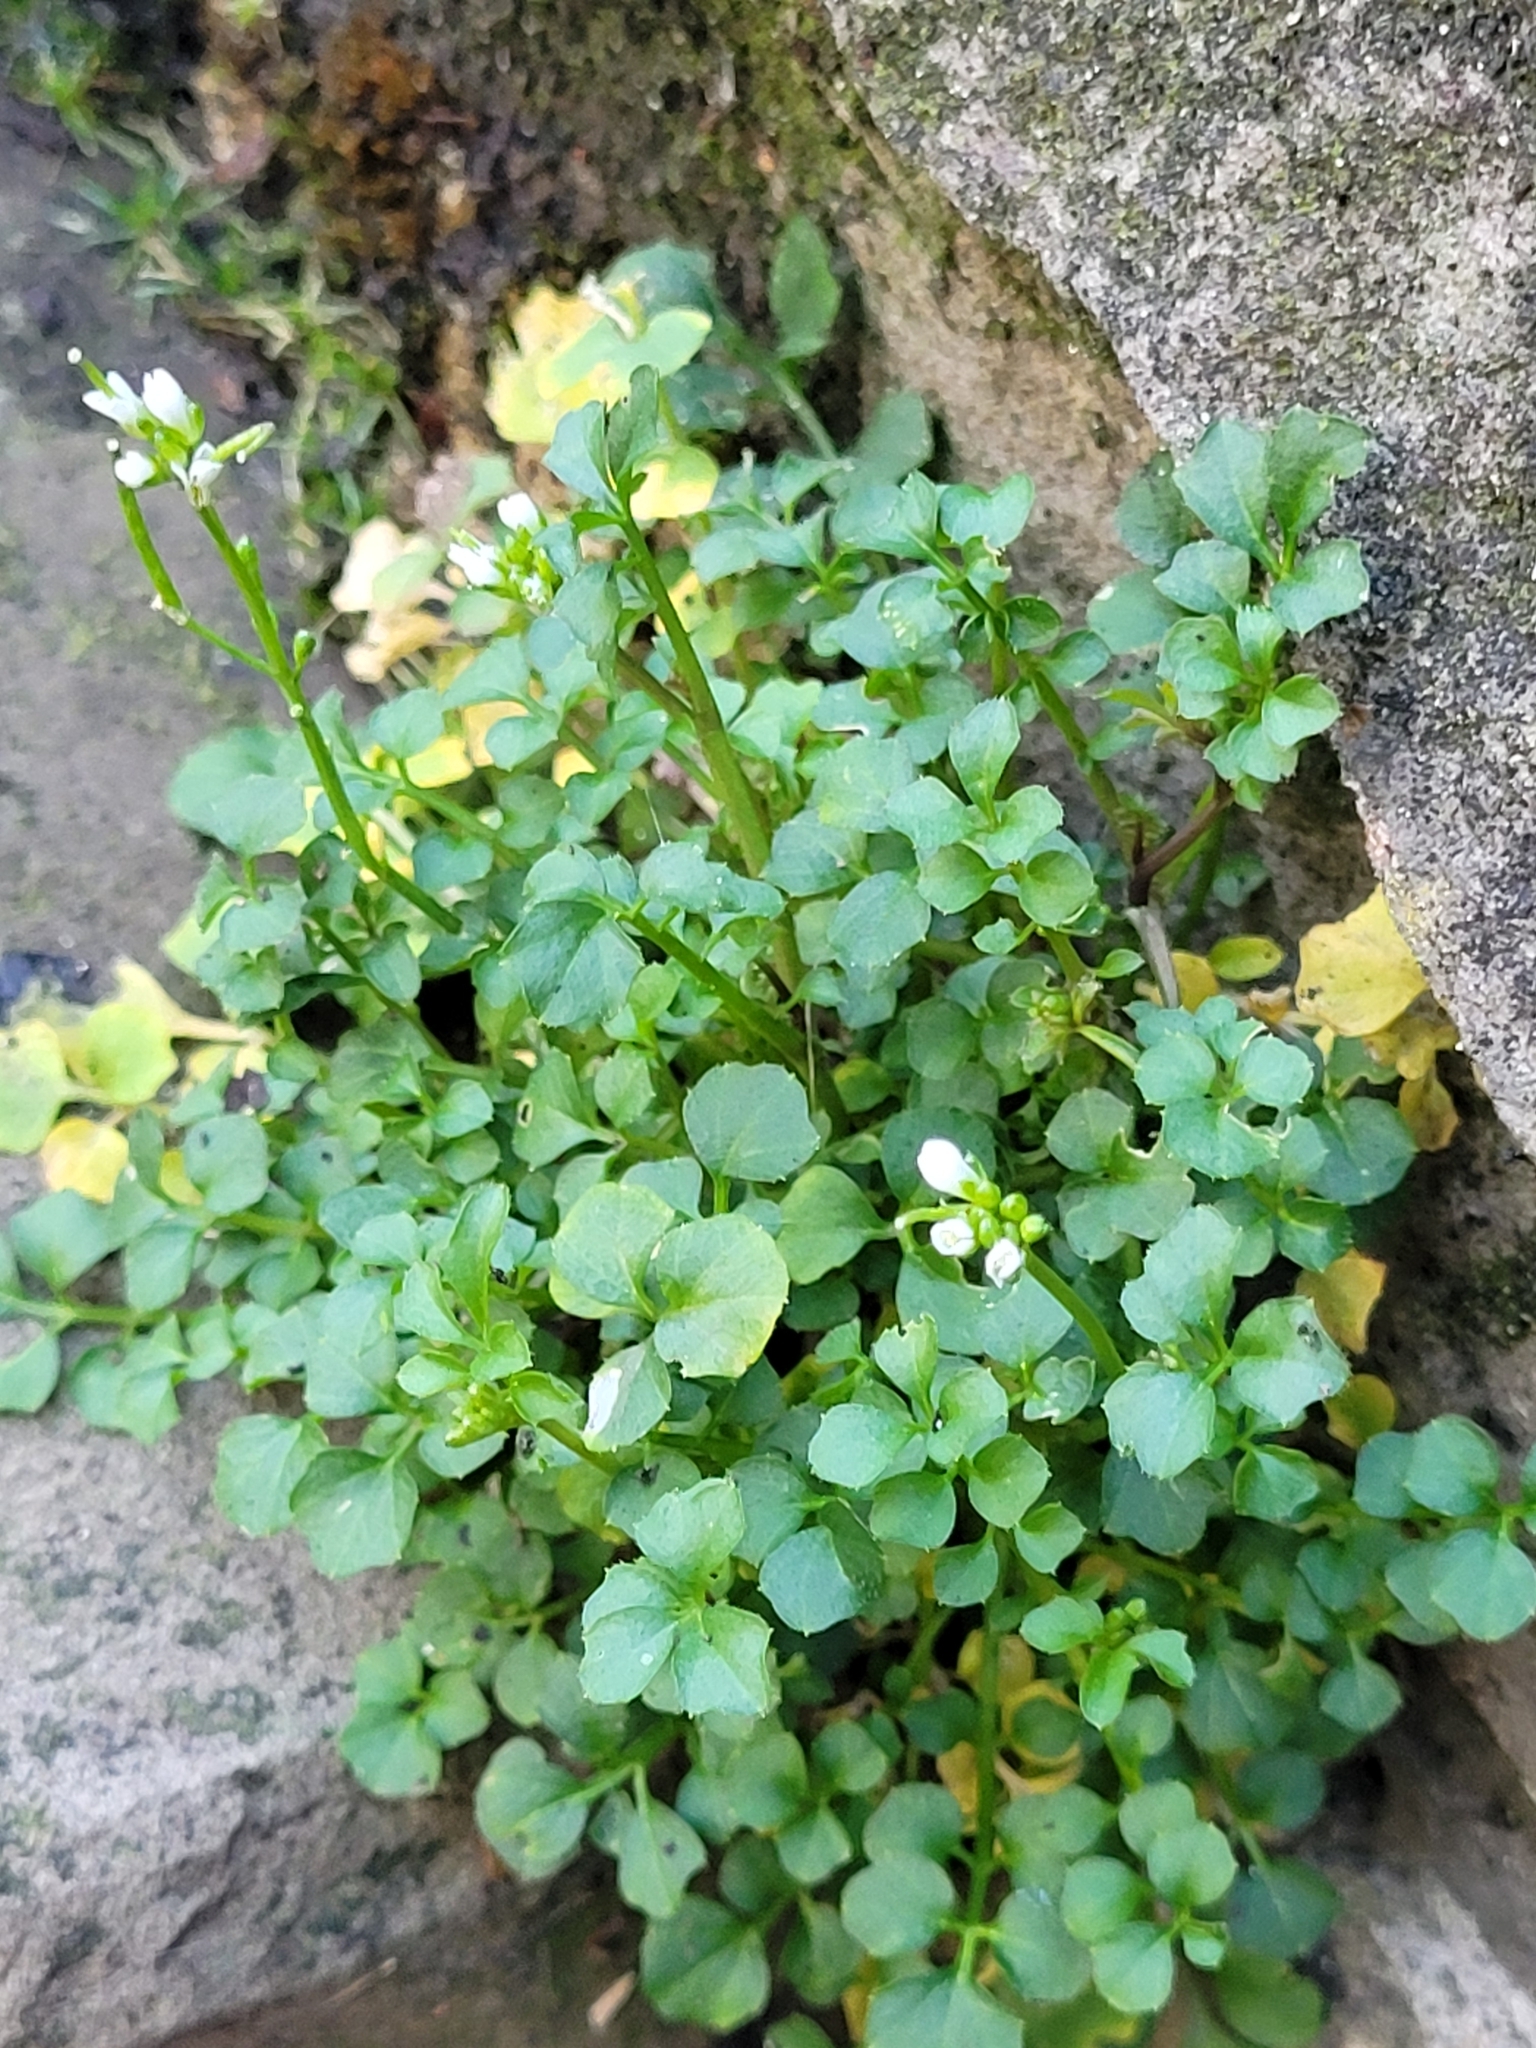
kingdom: Plantae
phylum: Tracheophyta
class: Magnoliopsida
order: Brassicales
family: Brassicaceae
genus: Cardamine
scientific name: Cardamine hirsuta
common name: Hairy bittercress
